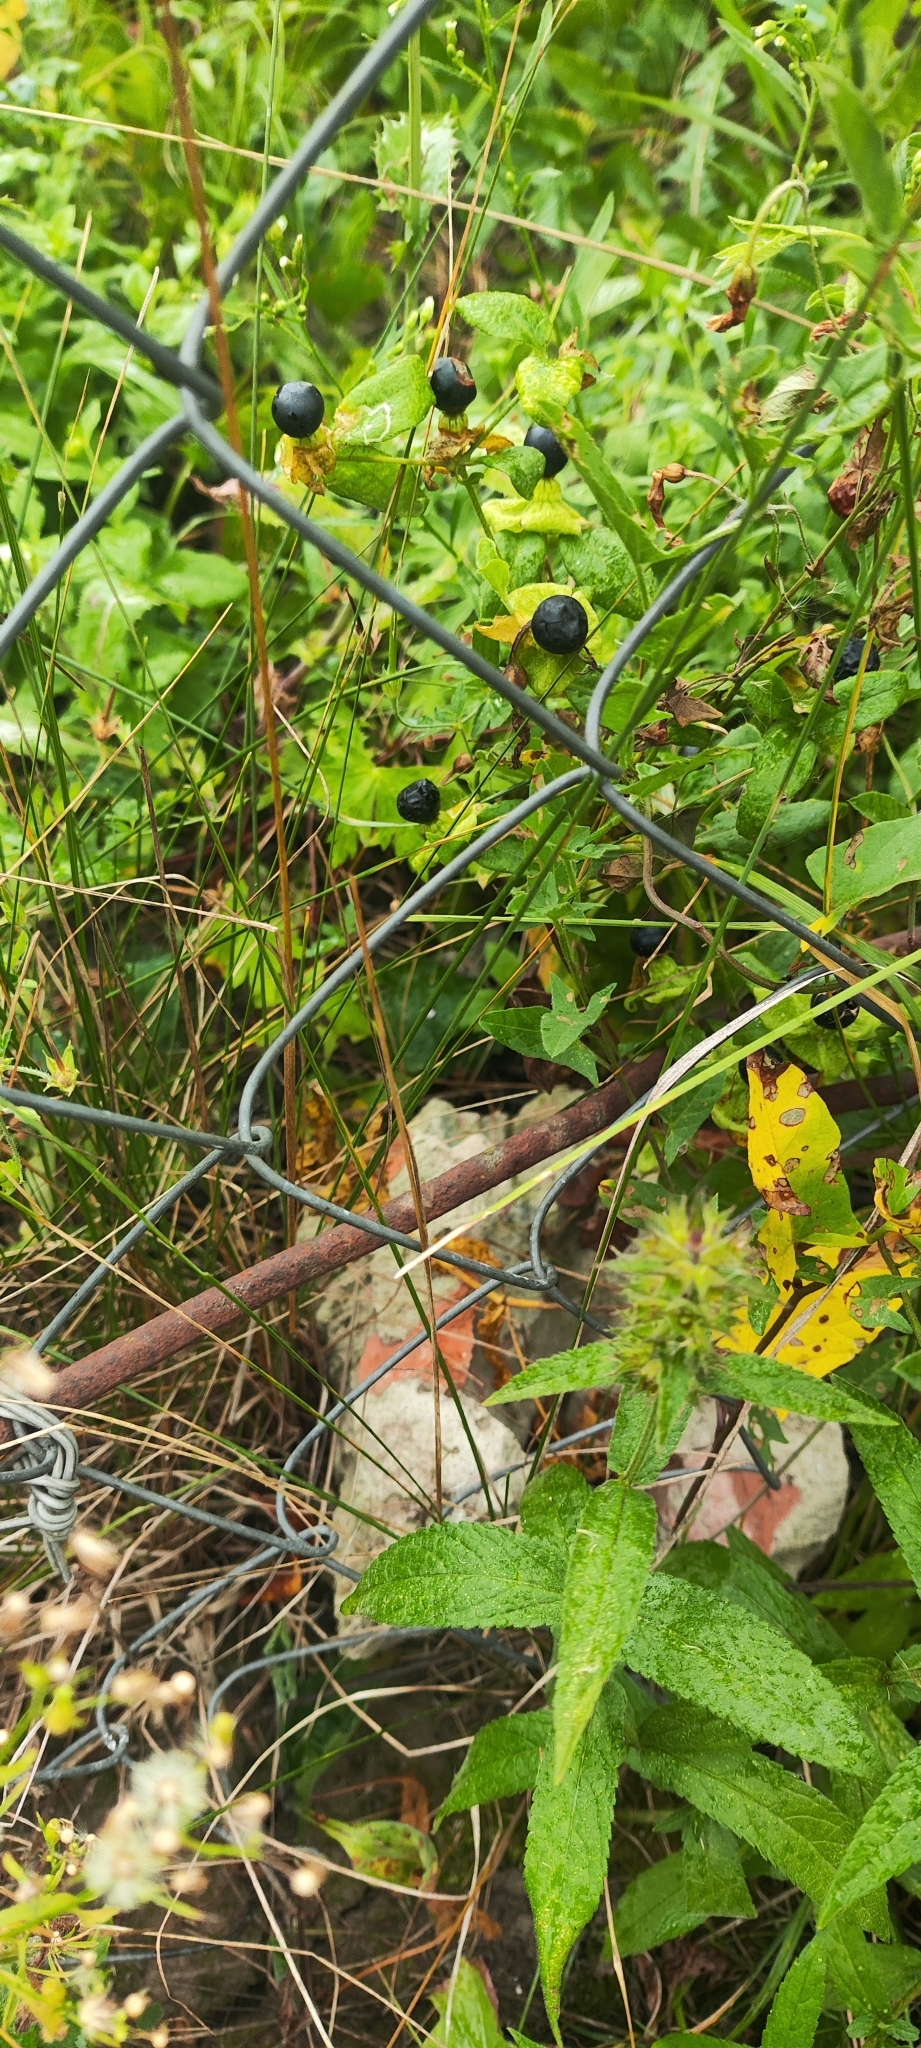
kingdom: Plantae
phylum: Tracheophyta
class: Magnoliopsida
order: Caryophyllales
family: Caryophyllaceae
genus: Silene
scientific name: Silene baccifera
